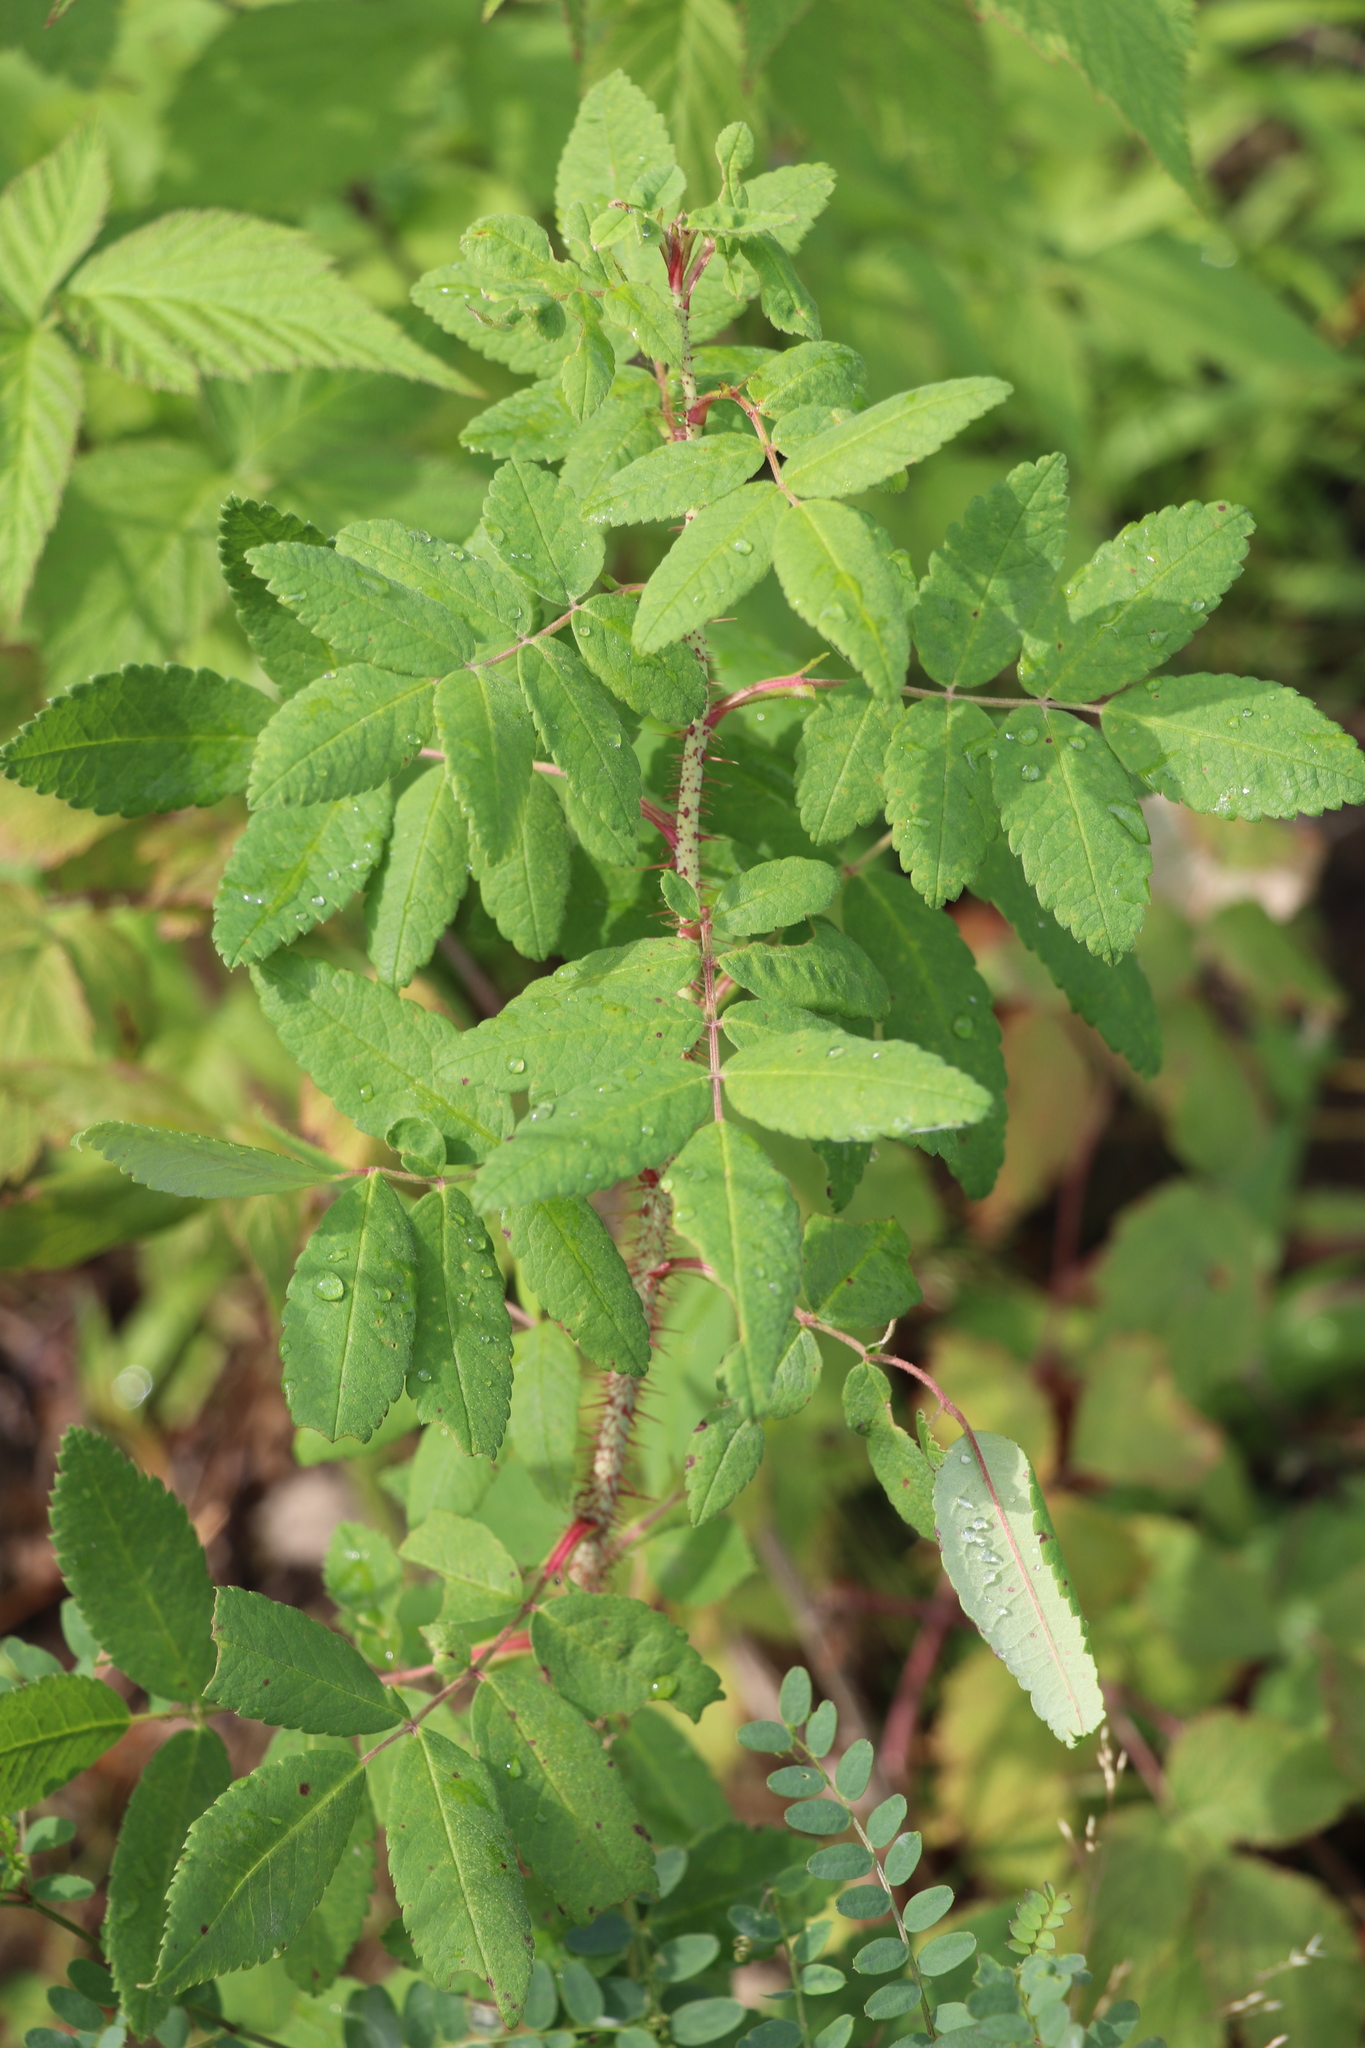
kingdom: Plantae
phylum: Tracheophyta
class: Magnoliopsida
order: Rosales
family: Rosaceae
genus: Rosa
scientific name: Rosa acicularis
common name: Prickly rose
